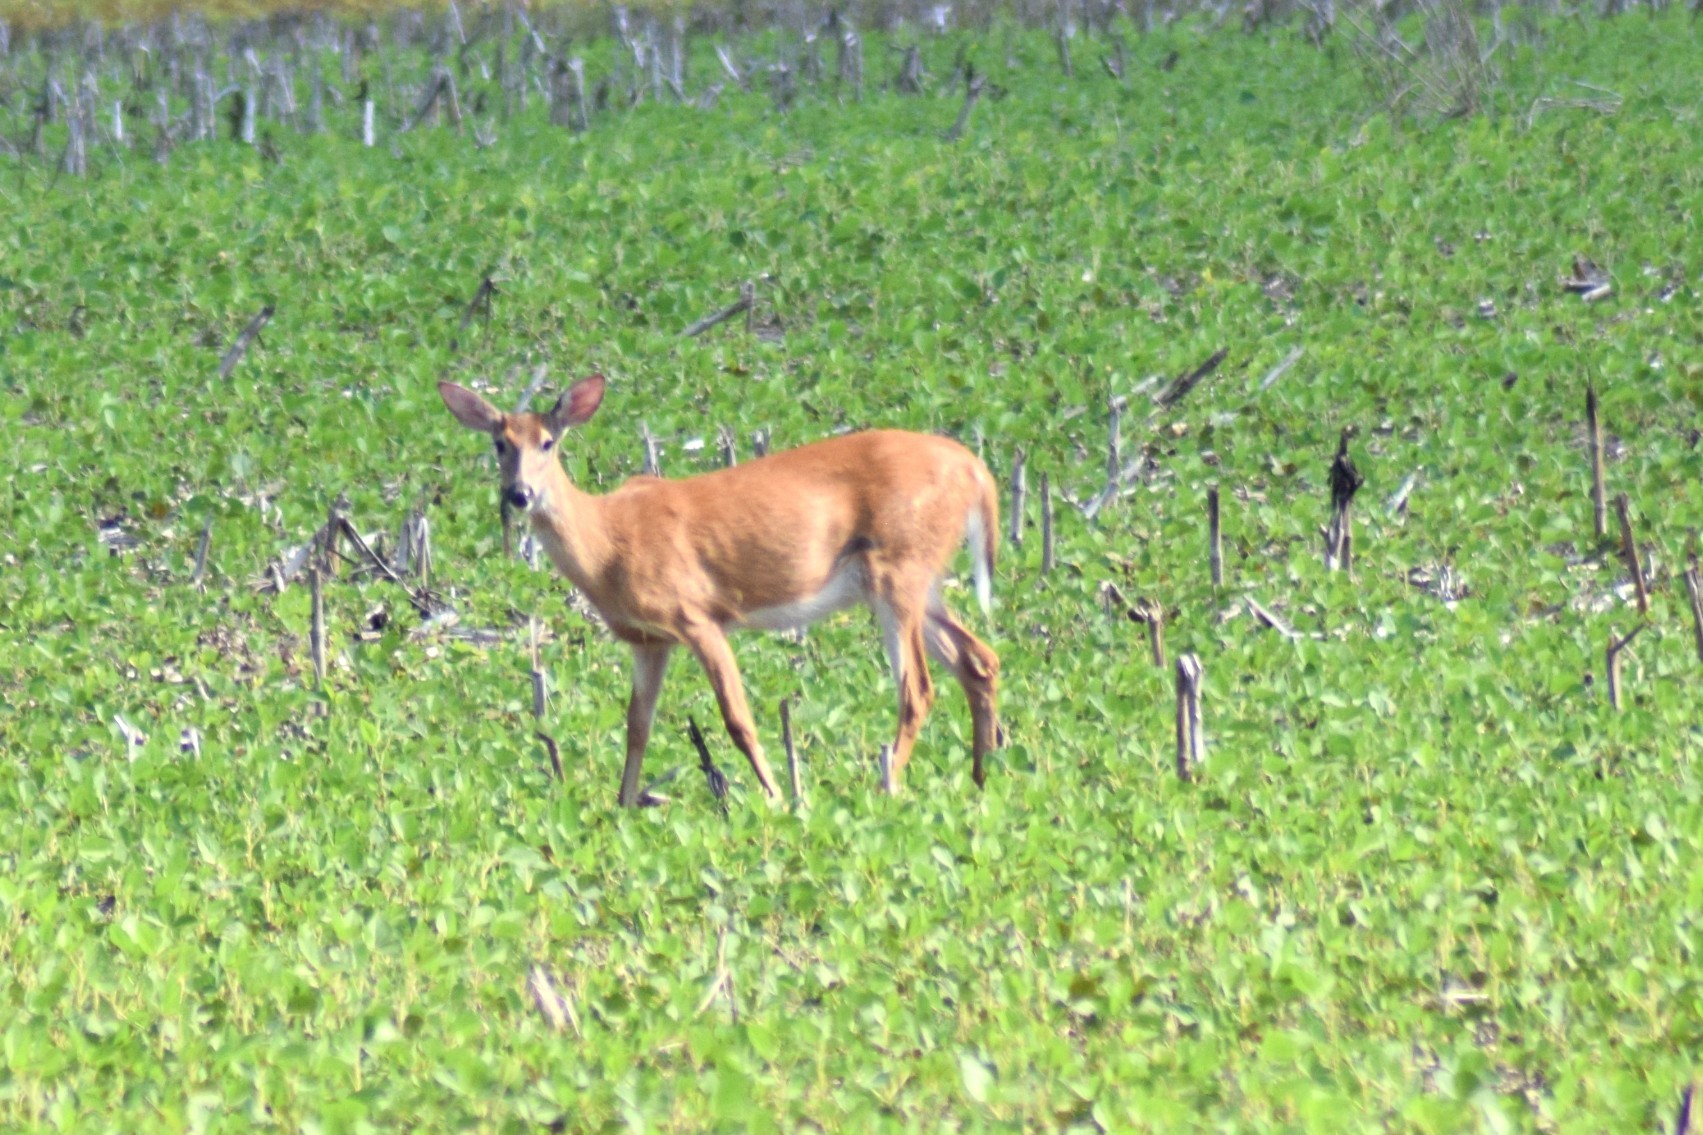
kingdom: Animalia
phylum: Chordata
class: Mammalia
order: Artiodactyla
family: Cervidae
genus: Odocoileus
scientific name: Odocoileus virginianus
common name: White-tailed deer
